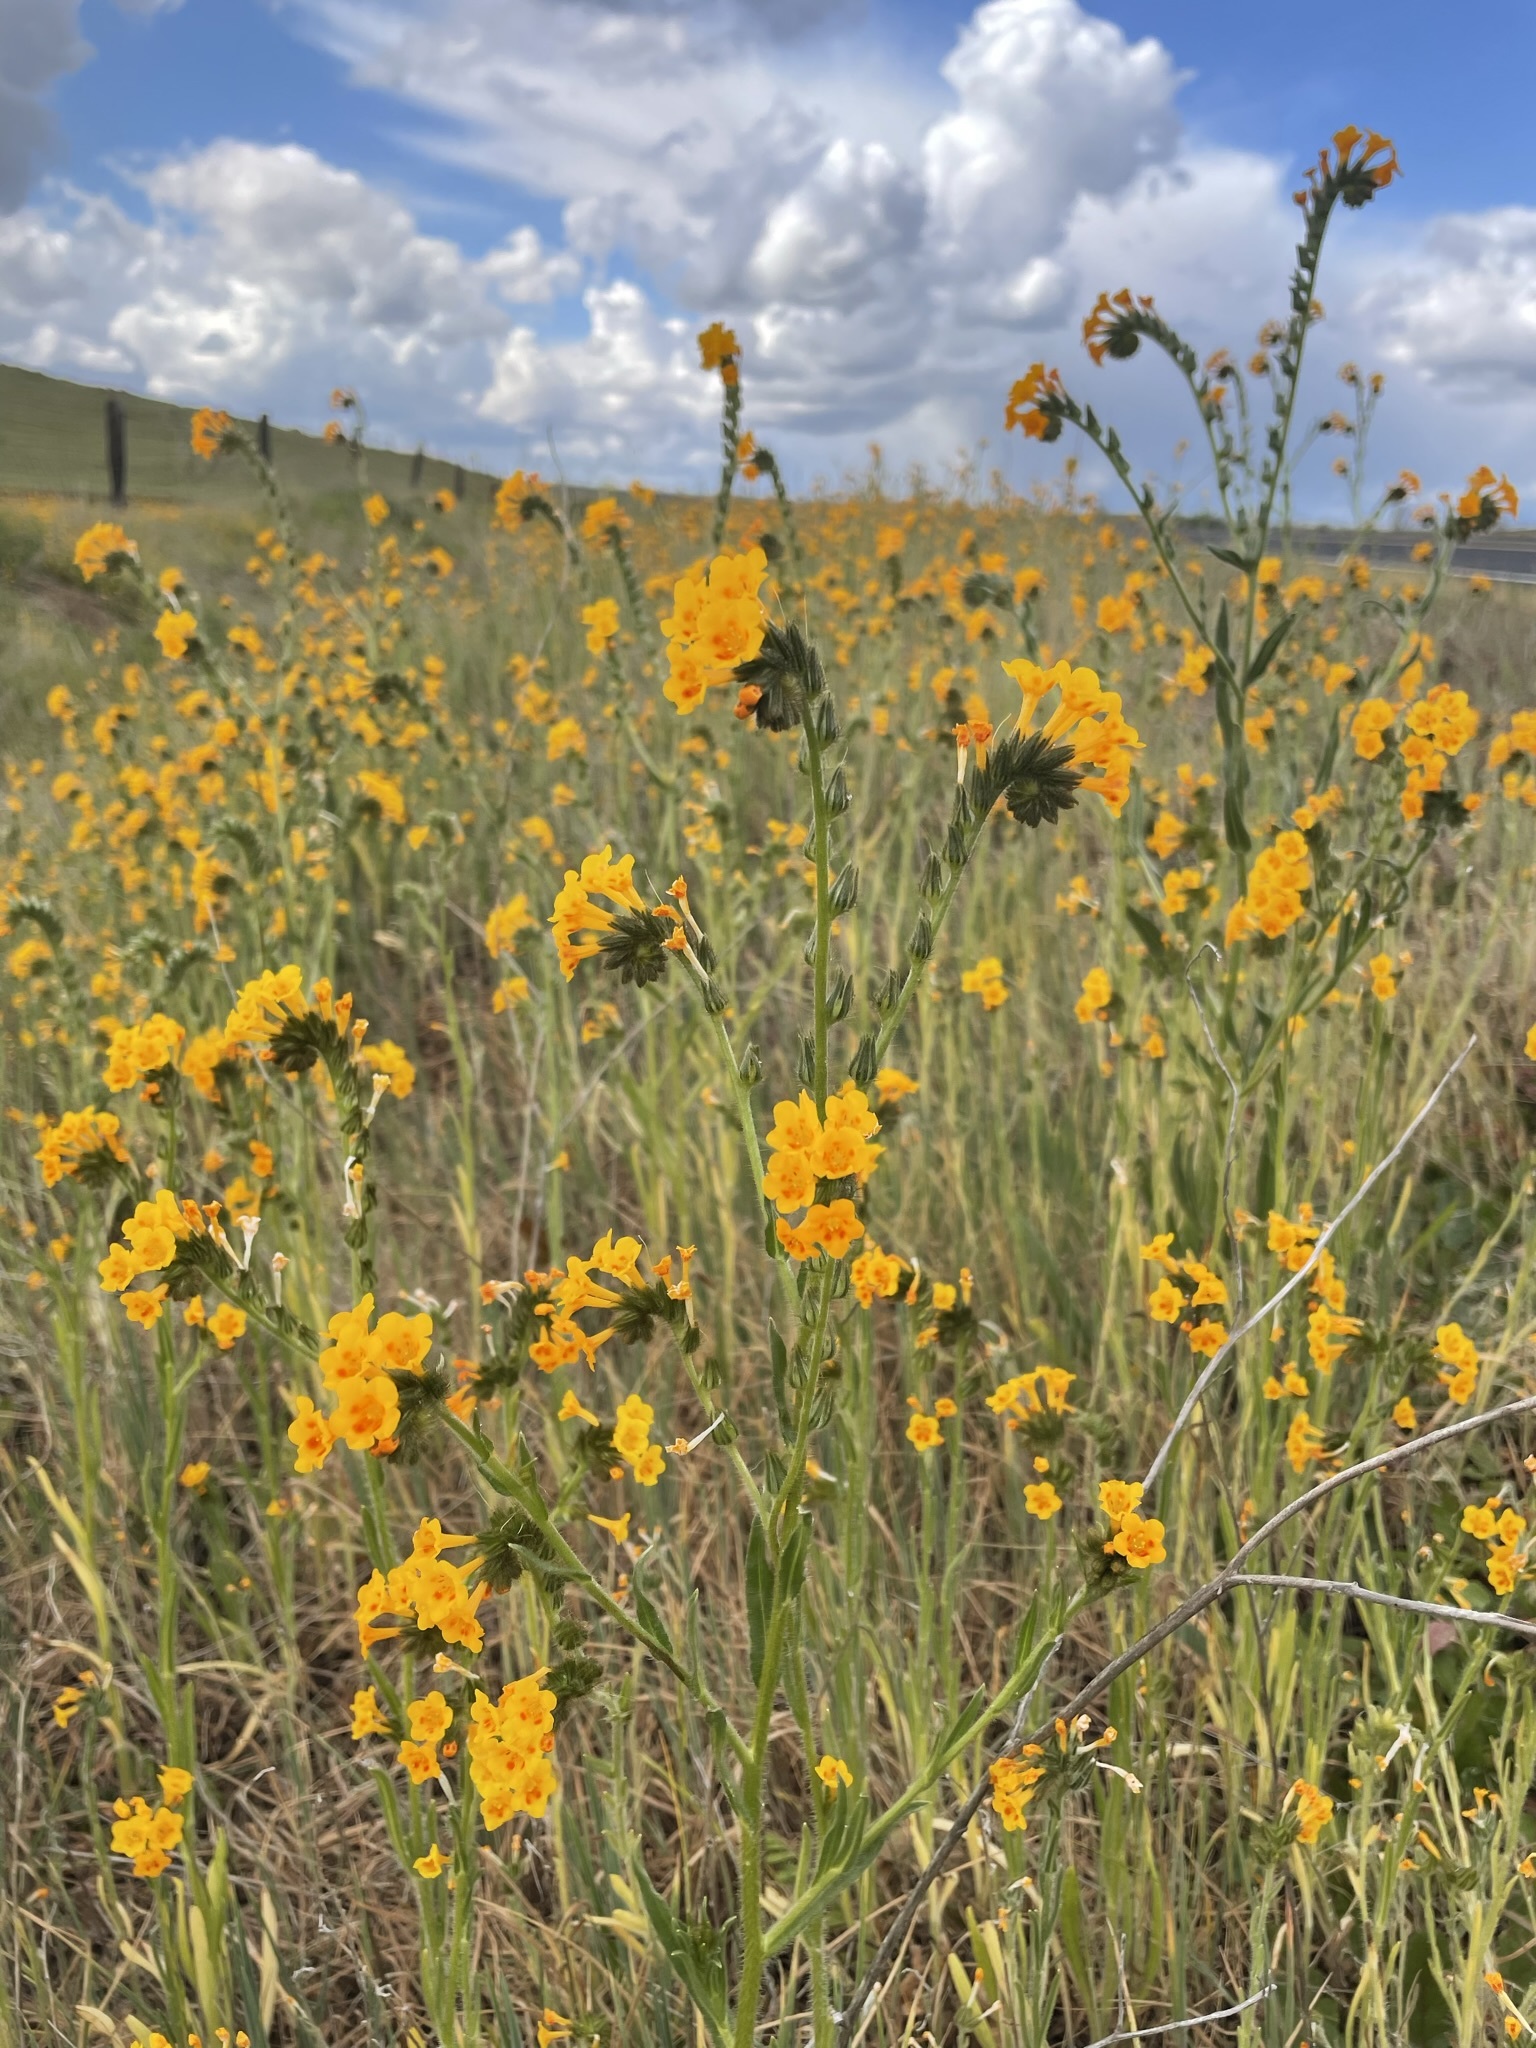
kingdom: Plantae
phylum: Tracheophyta
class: Magnoliopsida
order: Boraginales
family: Boraginaceae
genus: Amsinckia
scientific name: Amsinckia eastwoodiae
